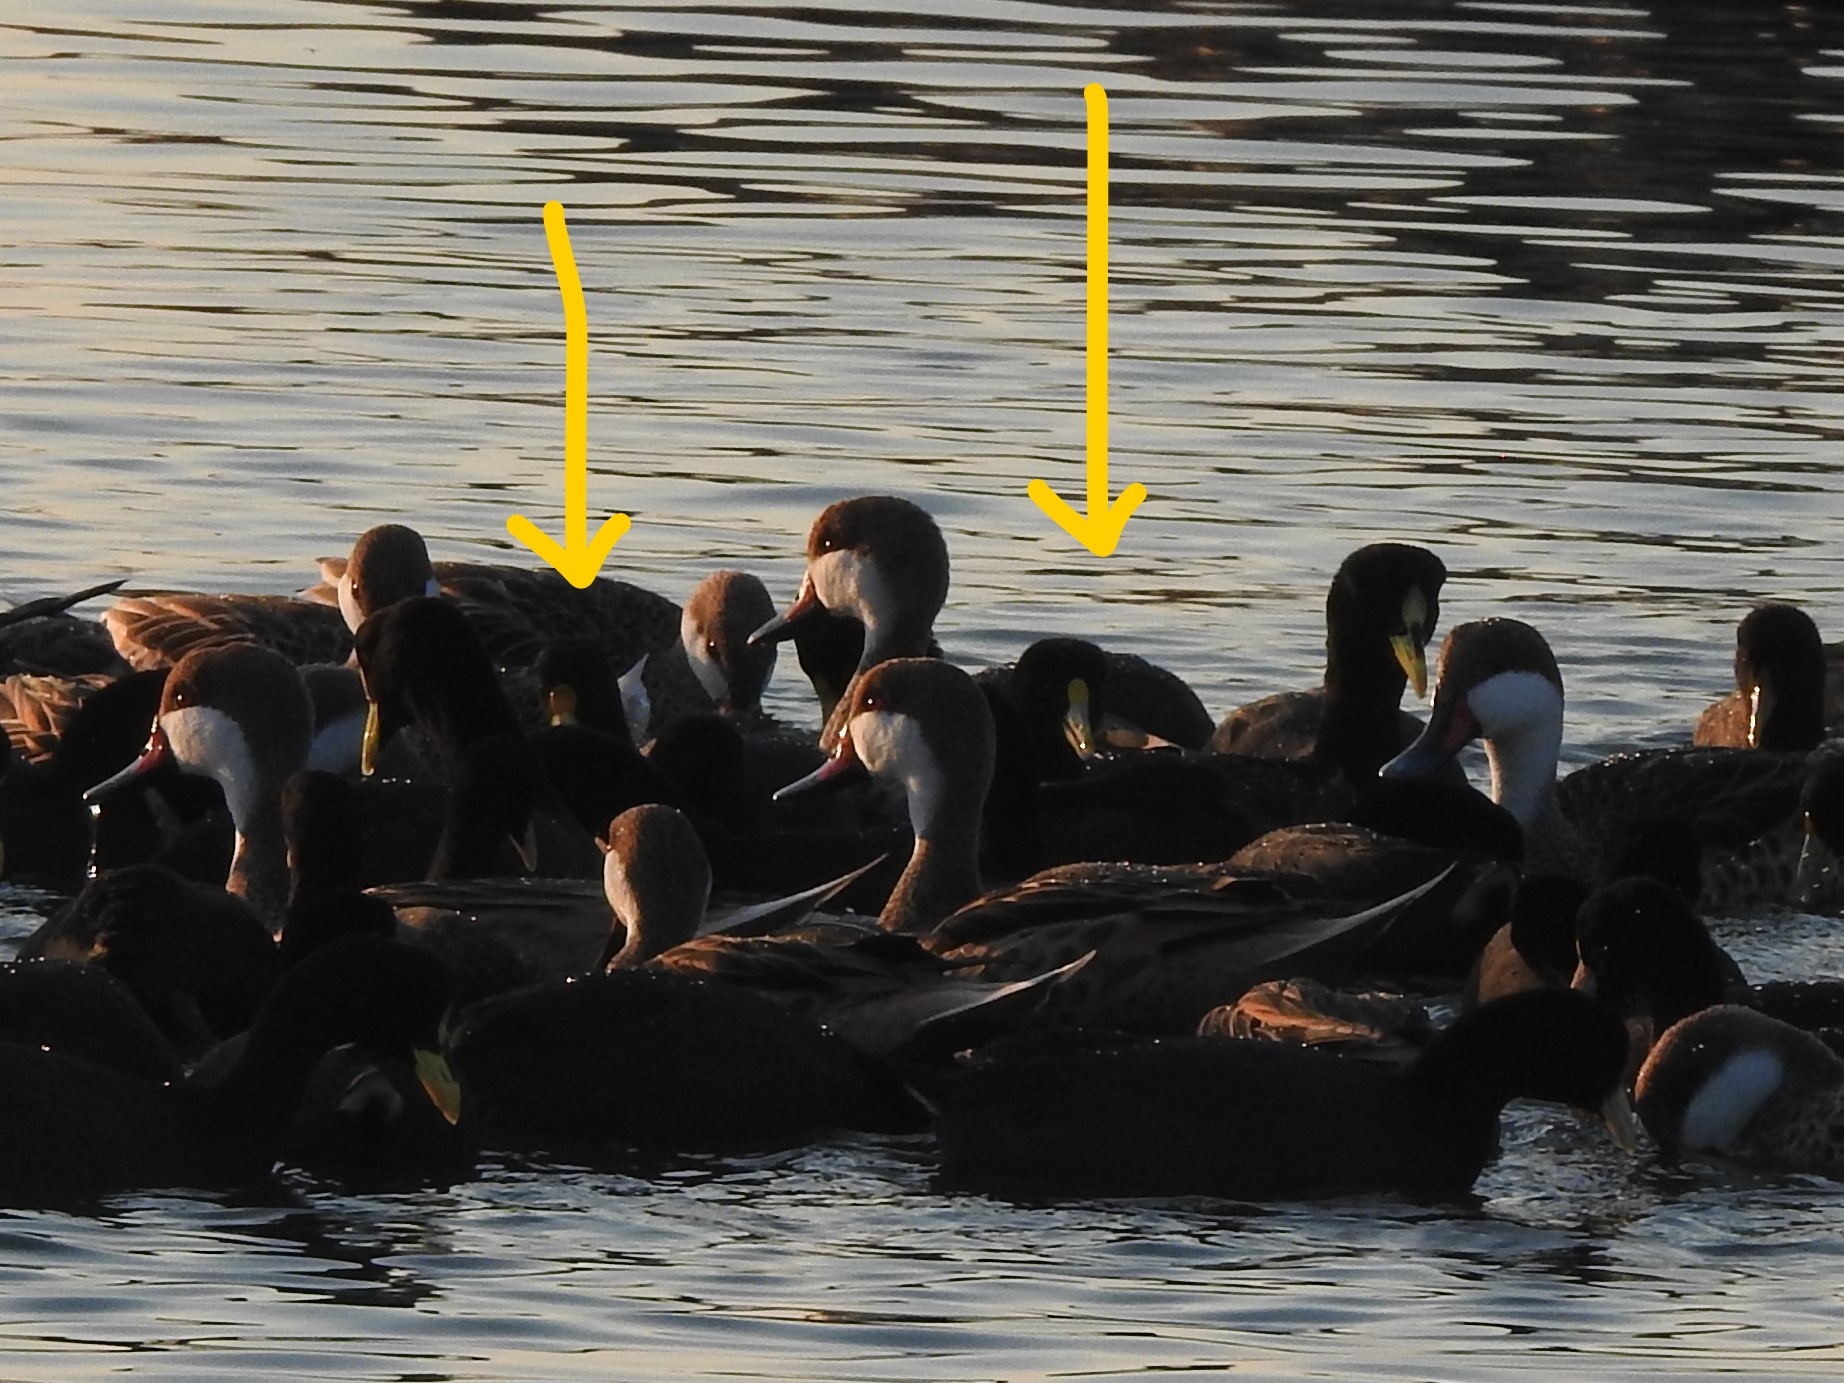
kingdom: Animalia
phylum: Chordata
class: Aves
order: Gruiformes
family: Rallidae
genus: Fulica
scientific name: Fulica leucoptera
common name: White-winged coot
